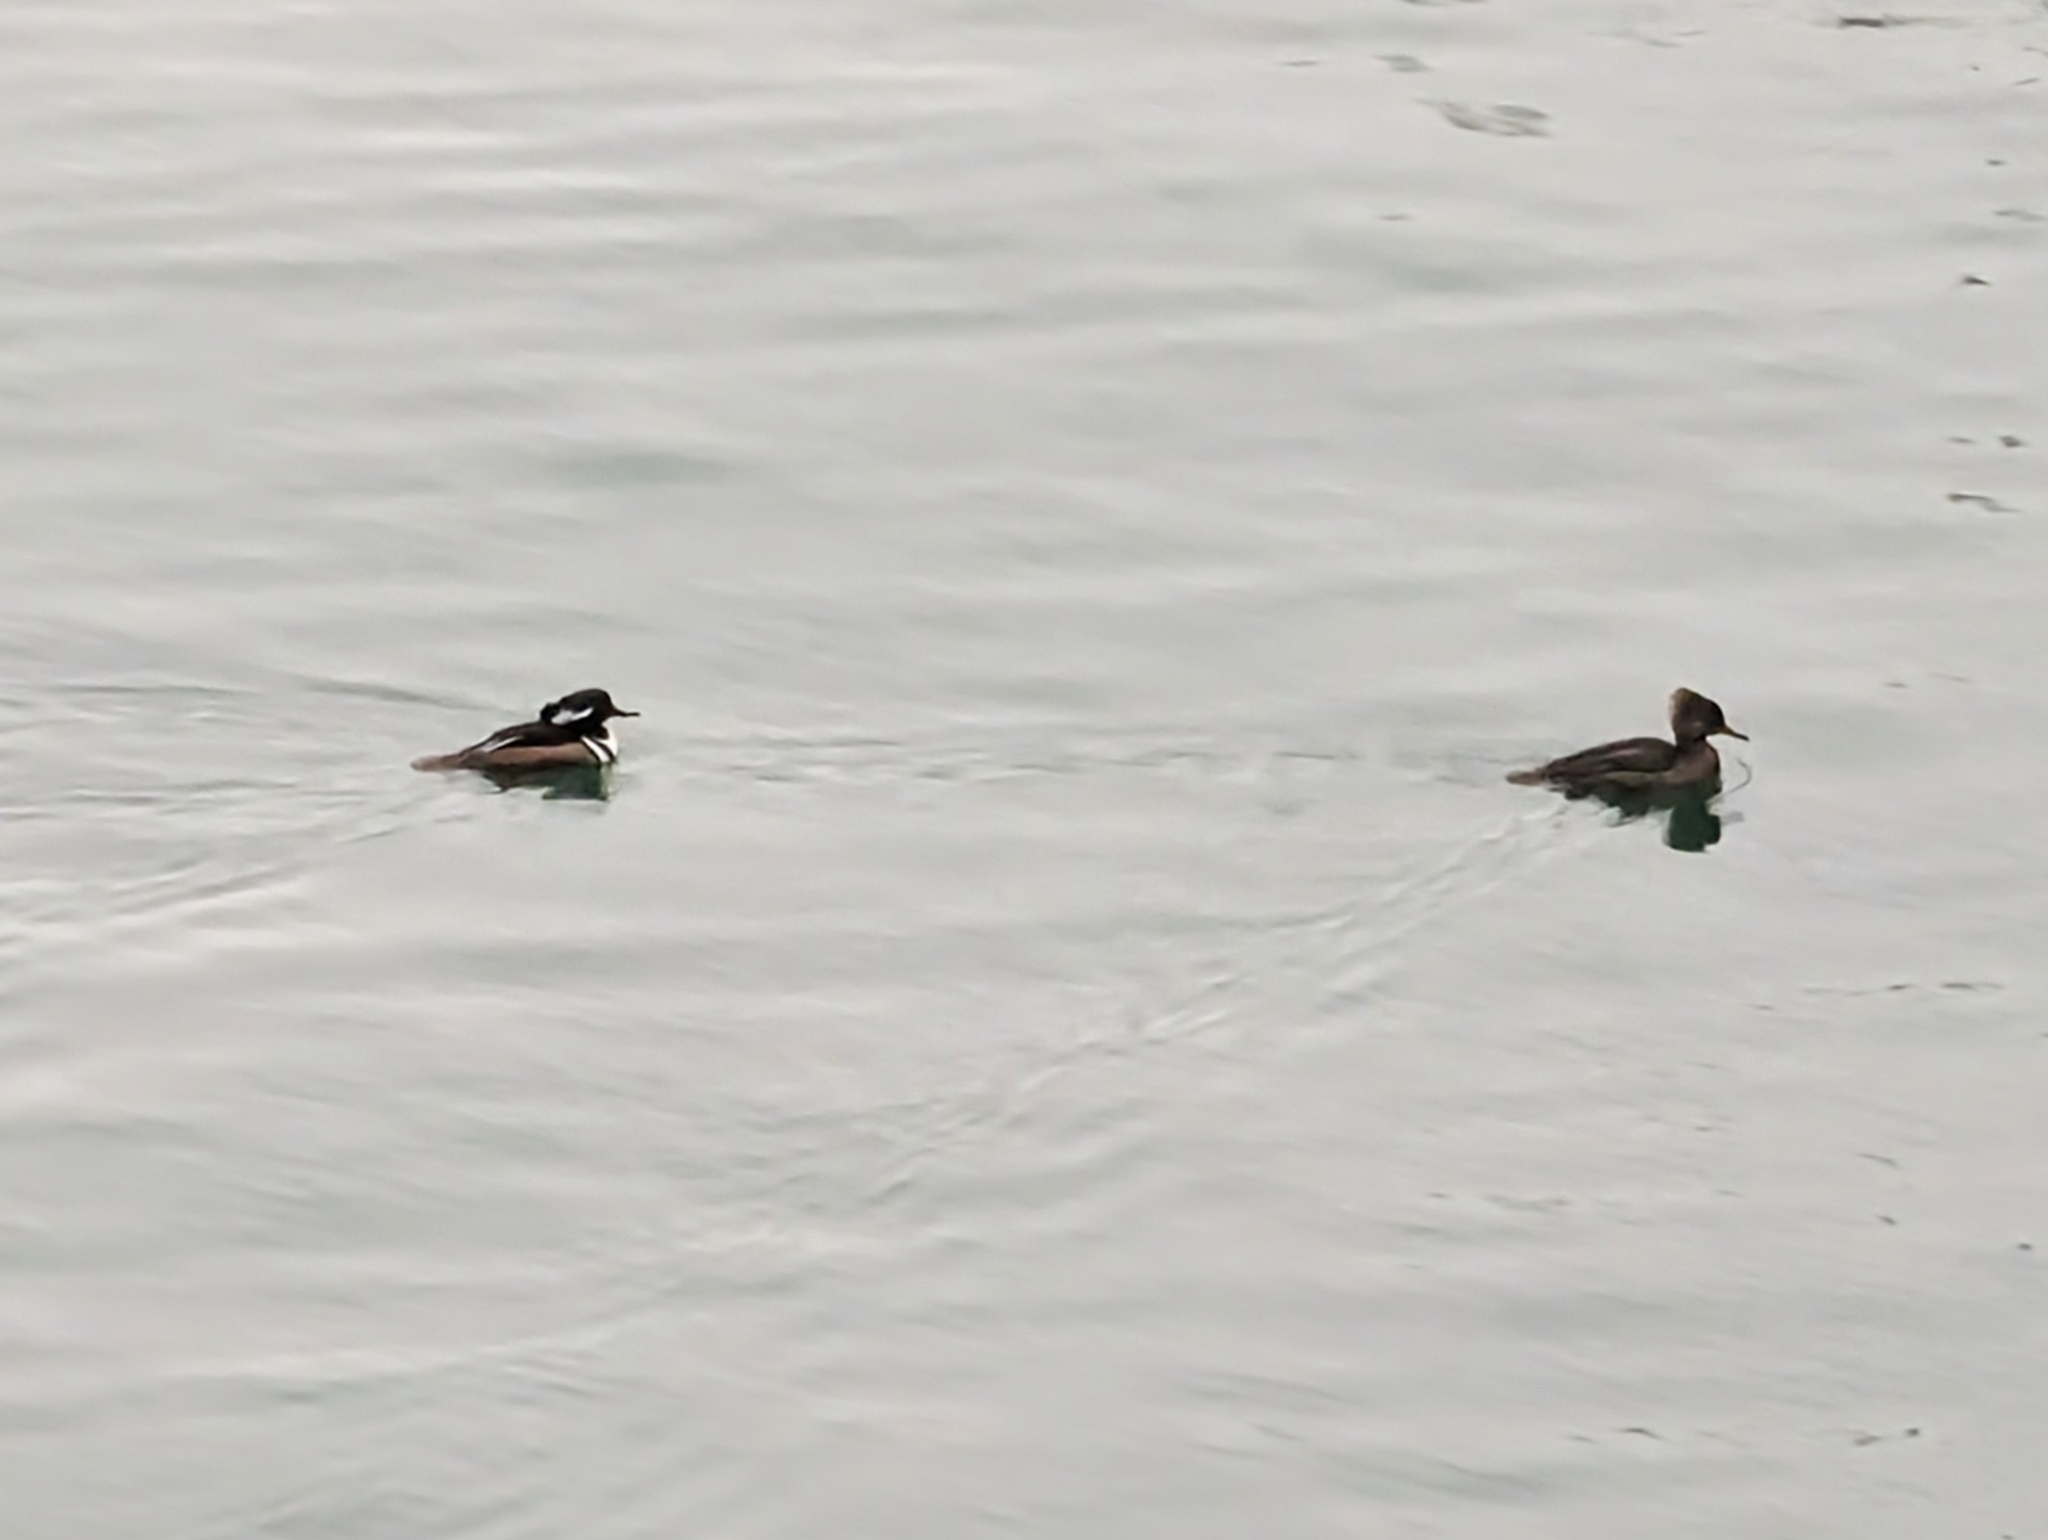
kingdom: Animalia
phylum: Chordata
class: Aves
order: Anseriformes
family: Anatidae
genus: Lophodytes
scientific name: Lophodytes cucullatus
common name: Hooded merganser
